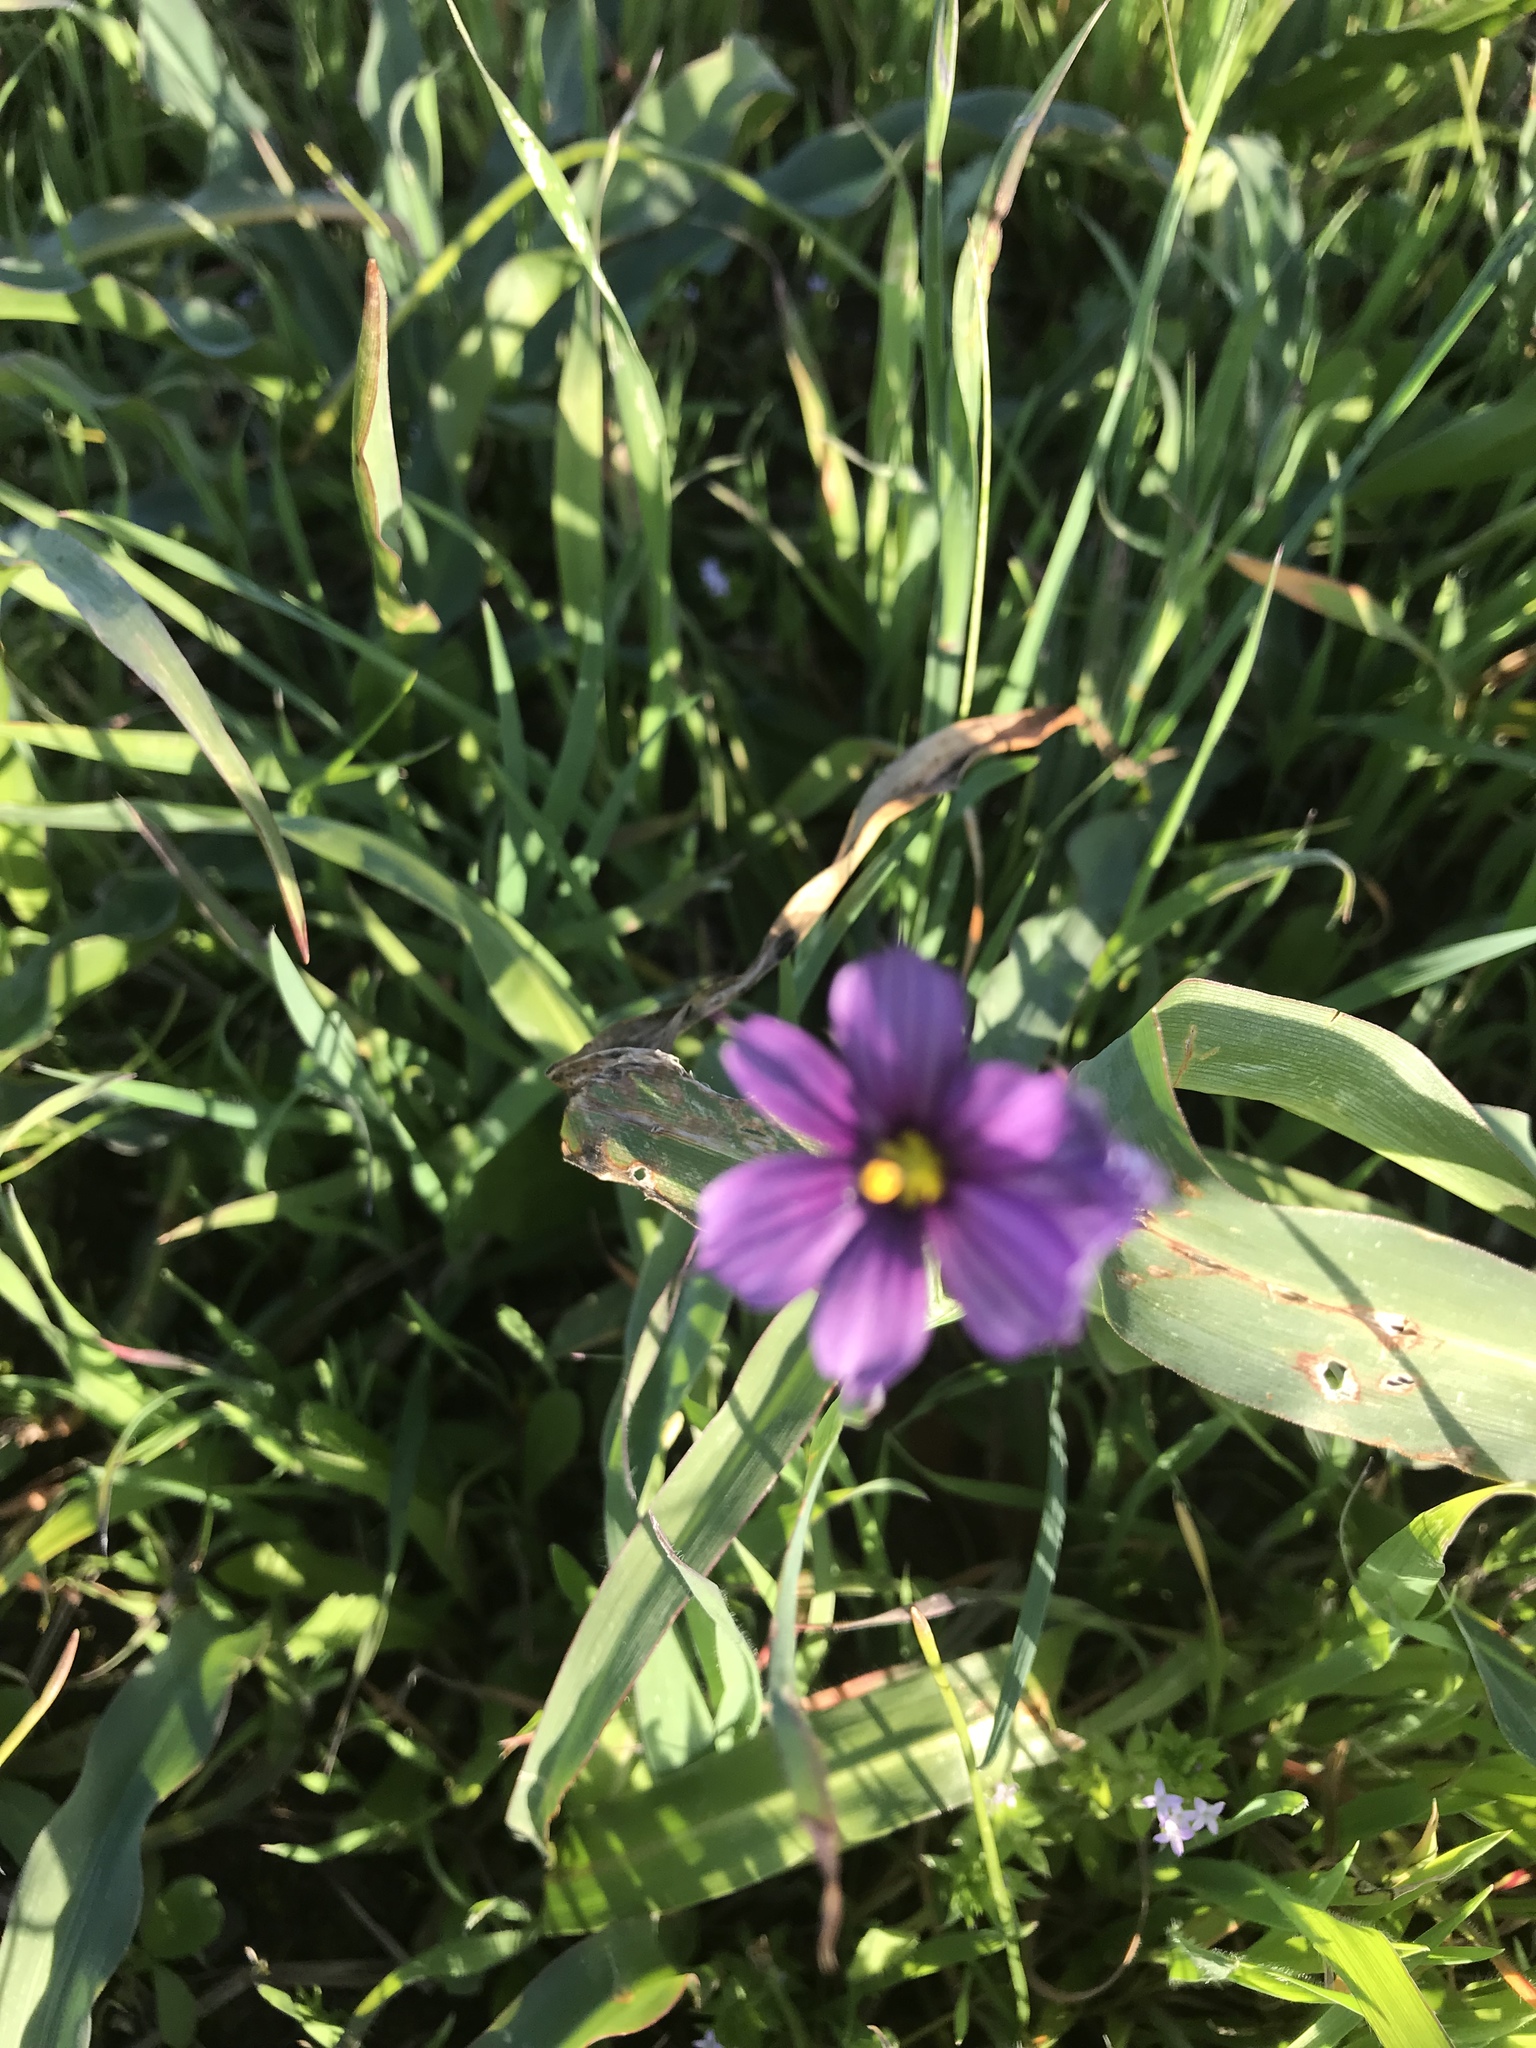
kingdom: Plantae
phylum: Tracheophyta
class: Liliopsida
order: Asparagales
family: Iridaceae
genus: Sisyrinchium
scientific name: Sisyrinchium bellum
